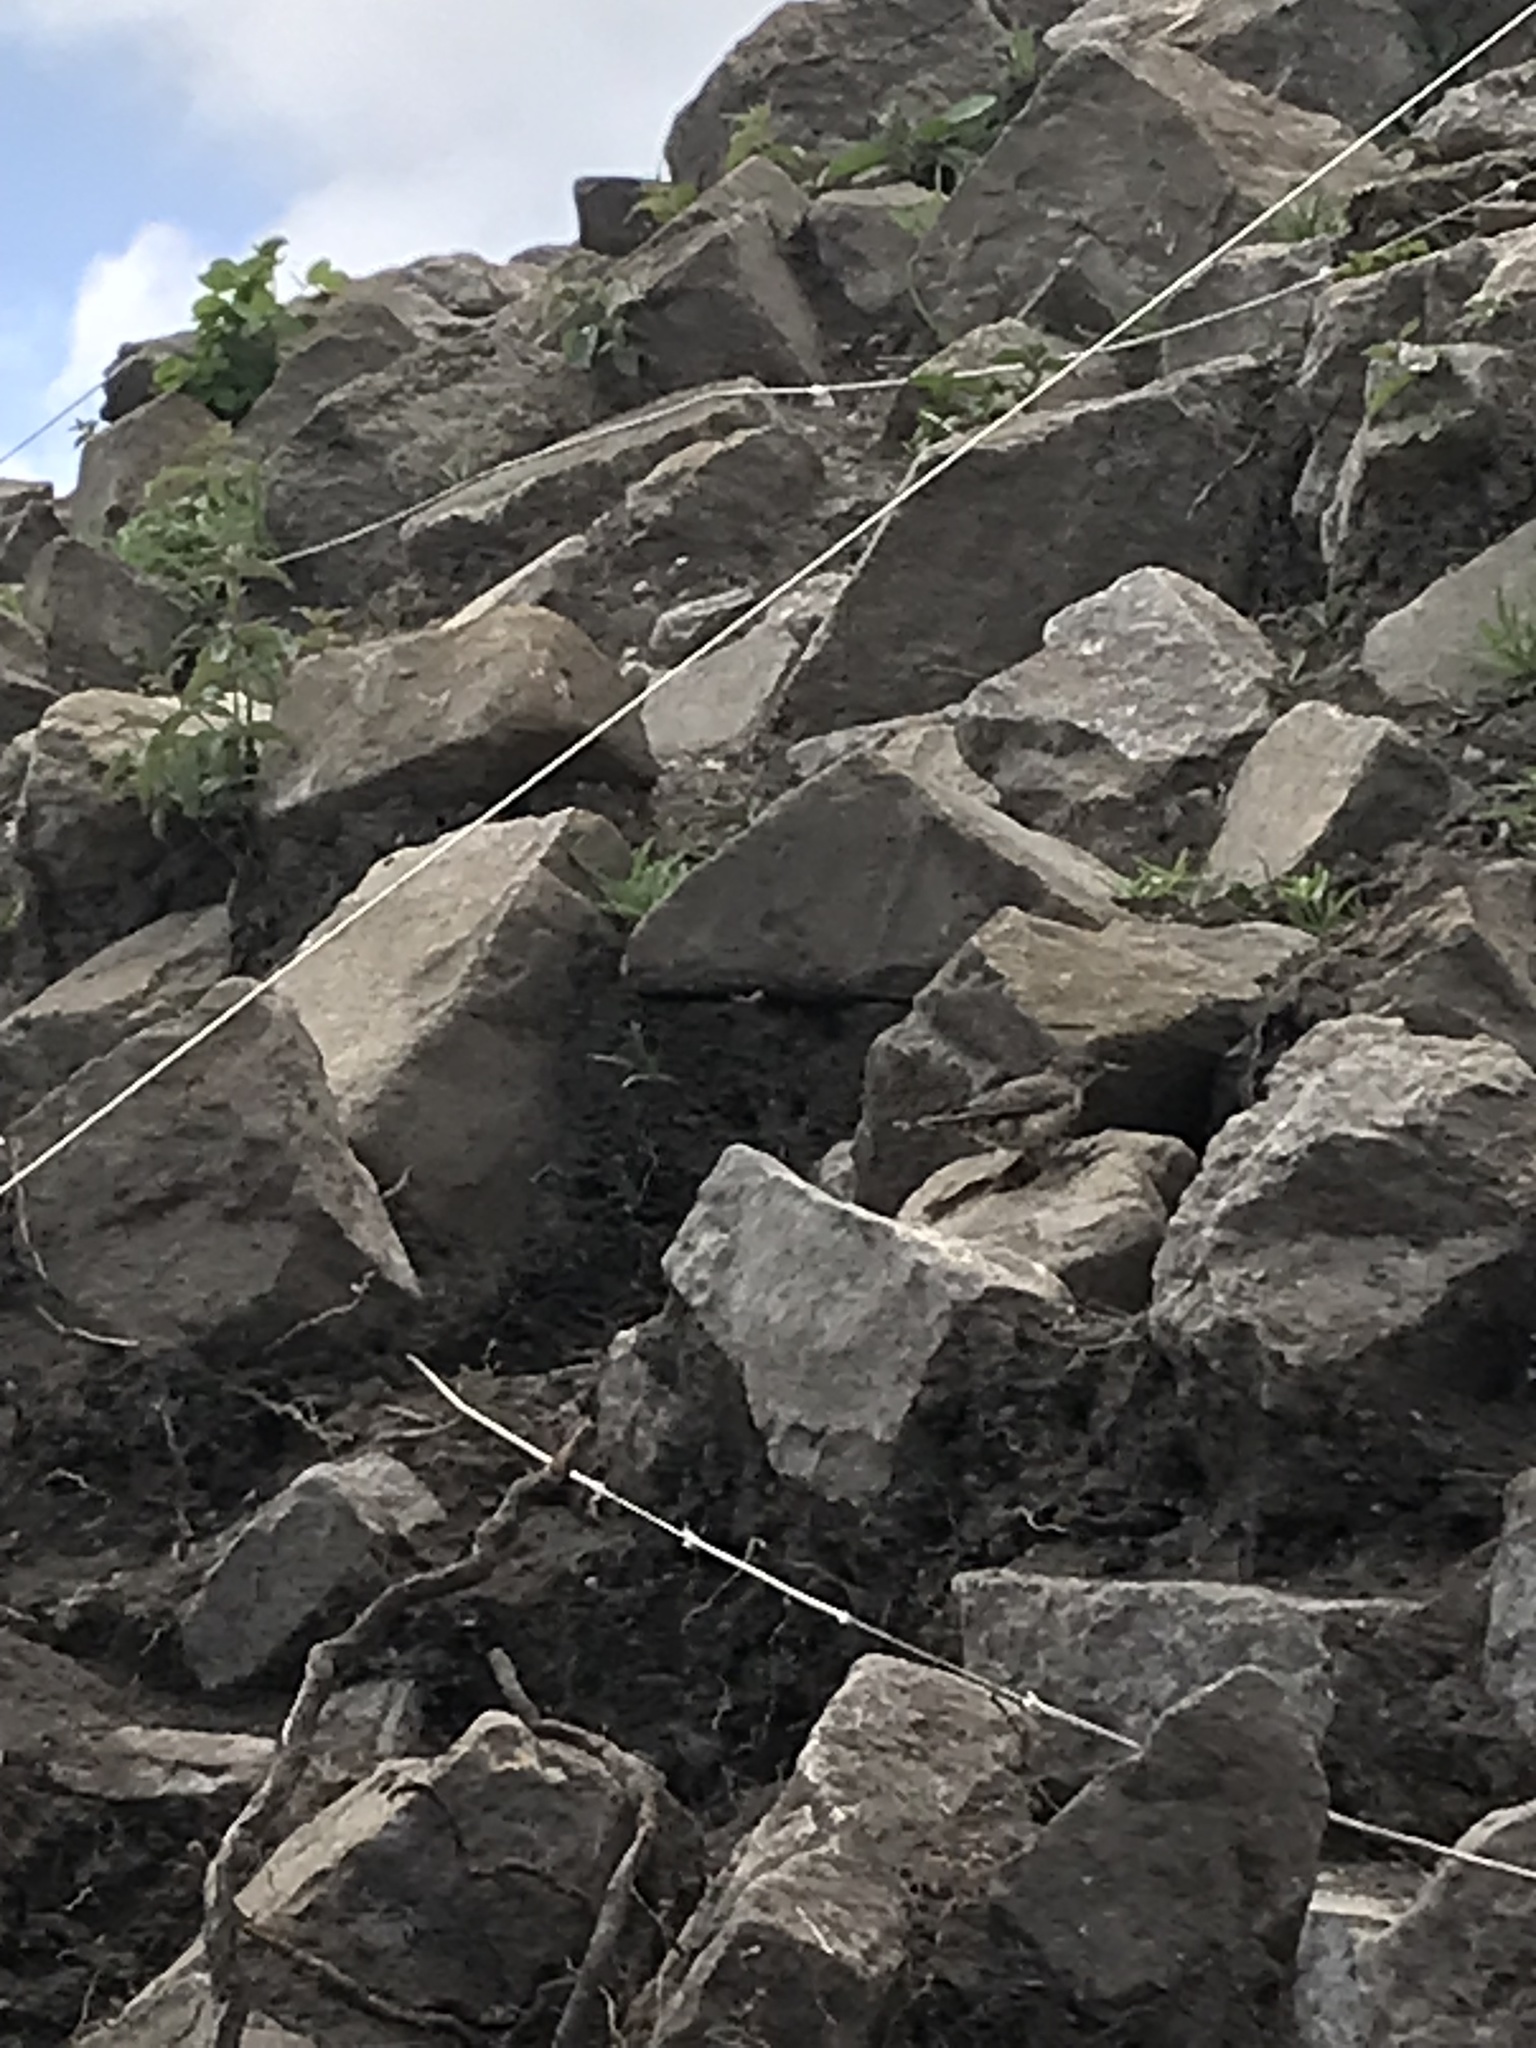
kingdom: Animalia
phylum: Chordata
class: Aves
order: Passeriformes
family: Troglodytidae
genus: Salpinctes
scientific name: Salpinctes obsoletus
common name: Rock wren
